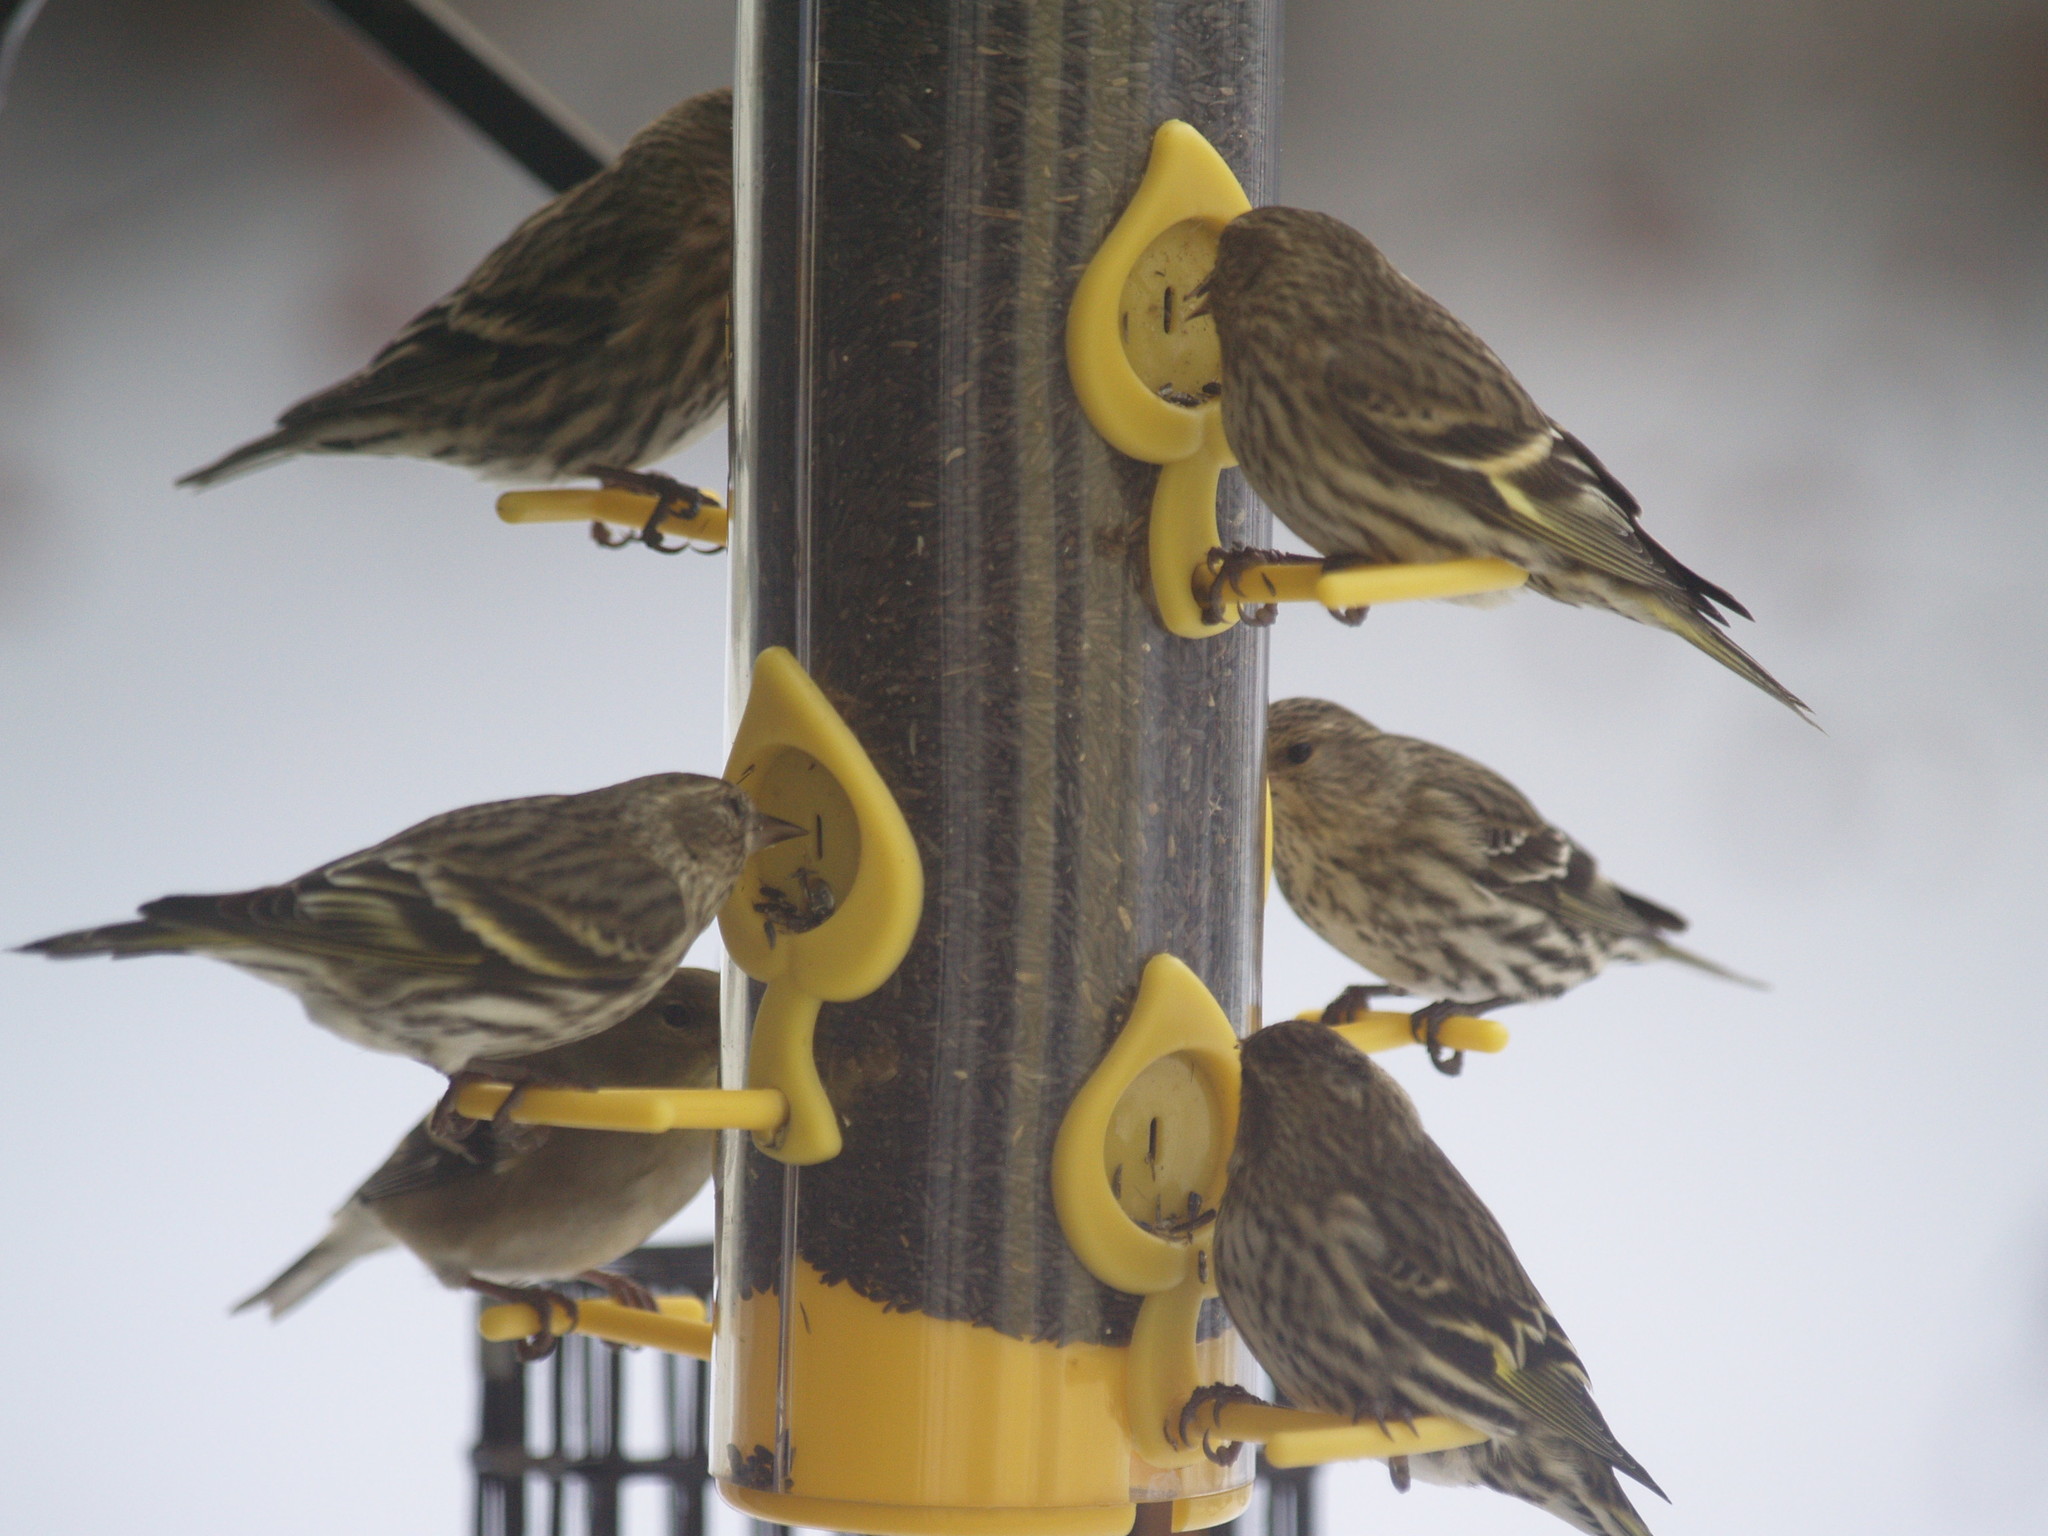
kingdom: Animalia
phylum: Chordata
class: Aves
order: Passeriformes
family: Fringillidae
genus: Spinus
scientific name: Spinus pinus
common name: Pine siskin
